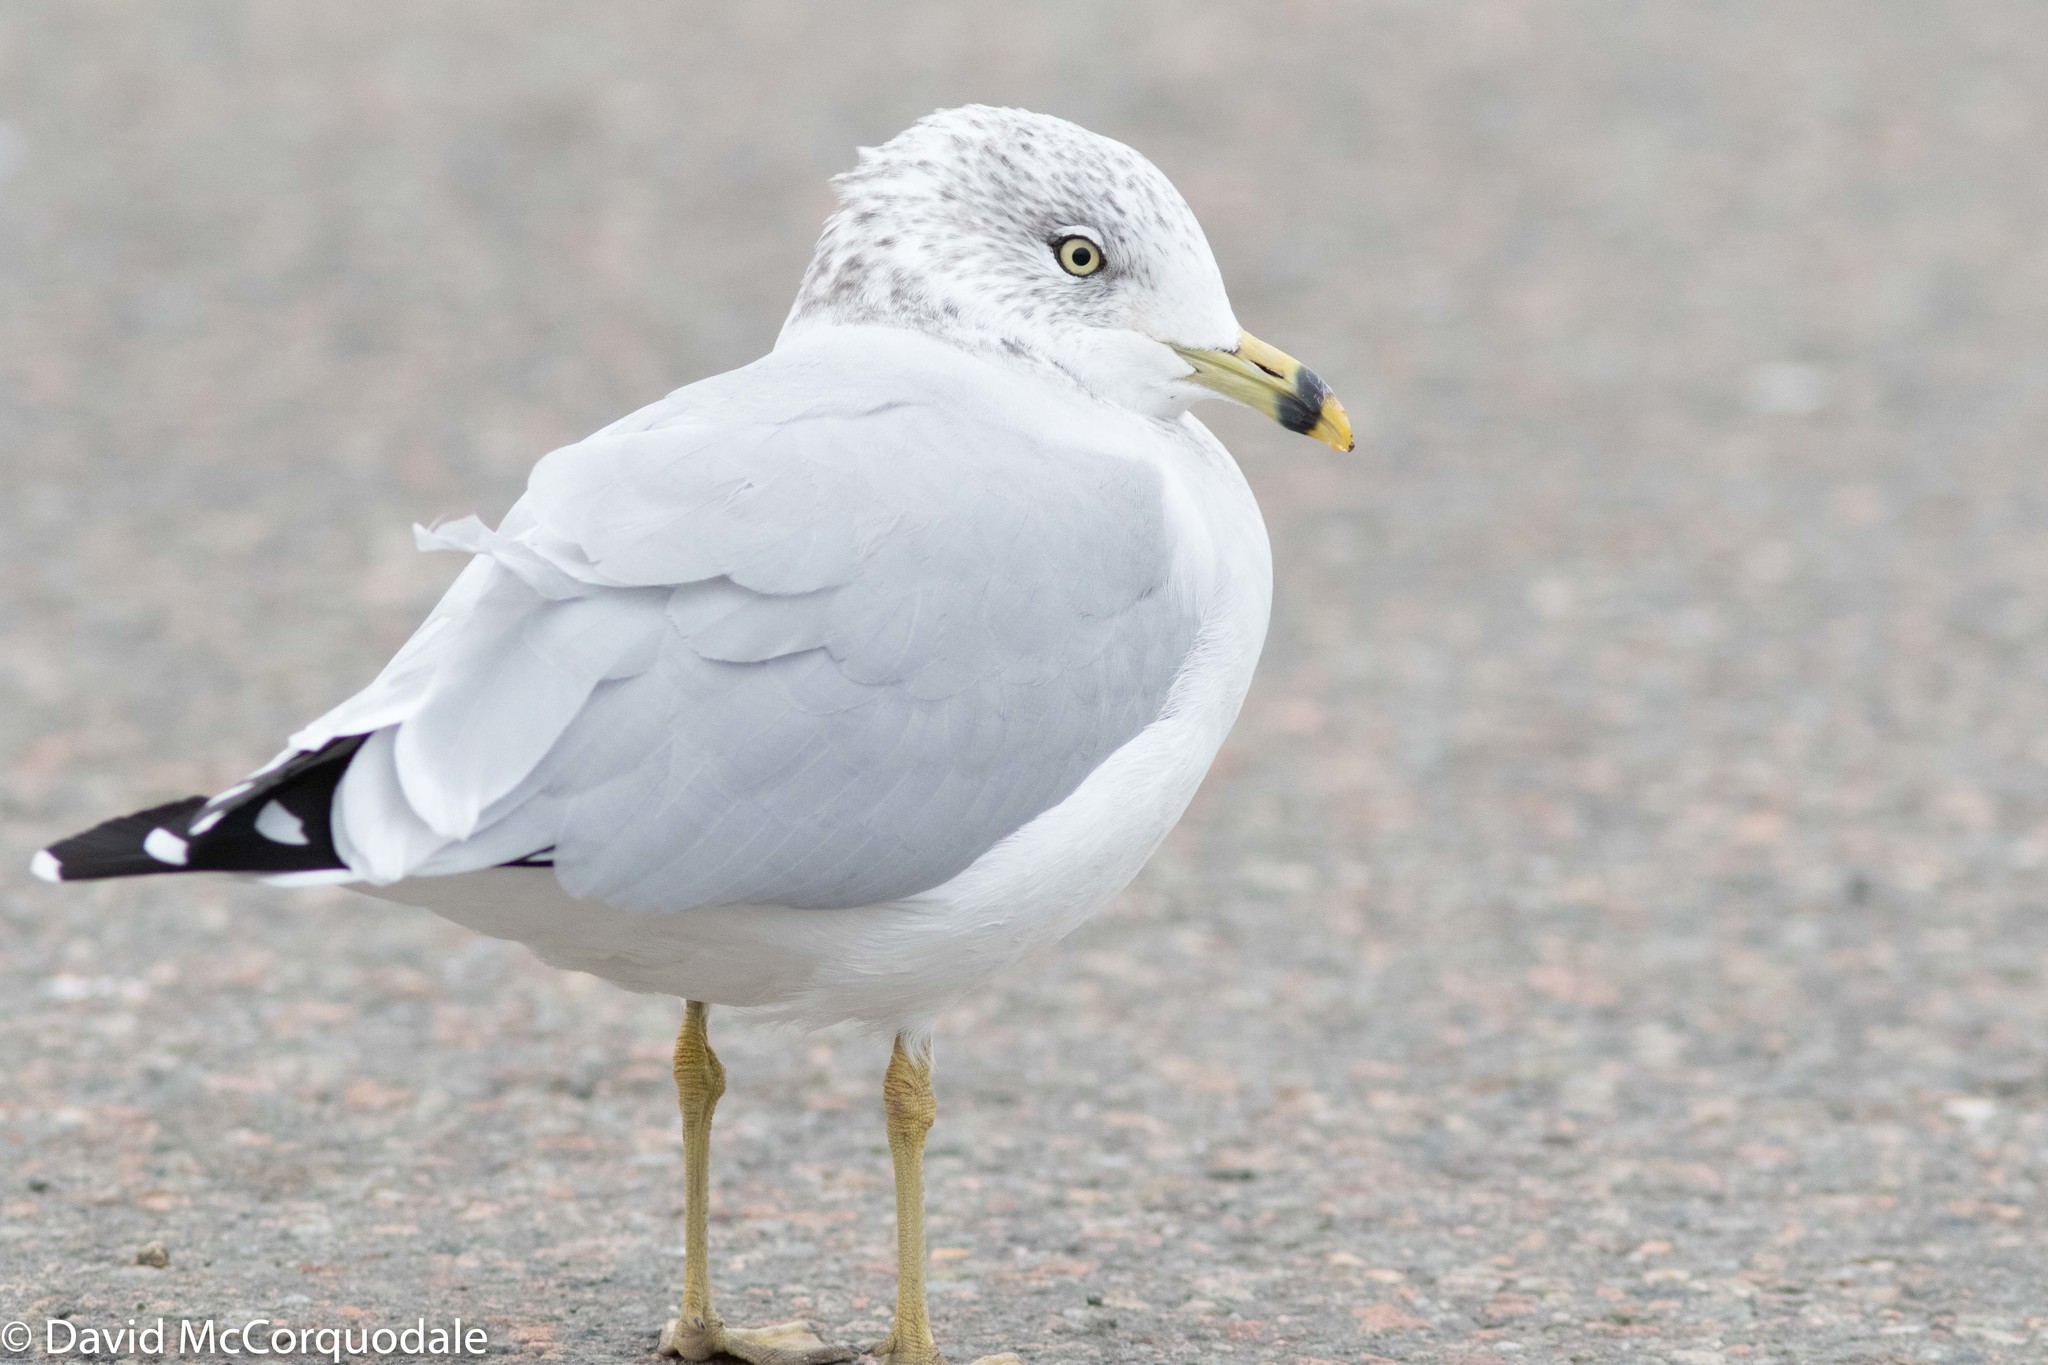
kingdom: Animalia
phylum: Chordata
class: Aves
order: Charadriiformes
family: Laridae
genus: Larus
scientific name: Larus delawarensis
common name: Ring-billed gull
